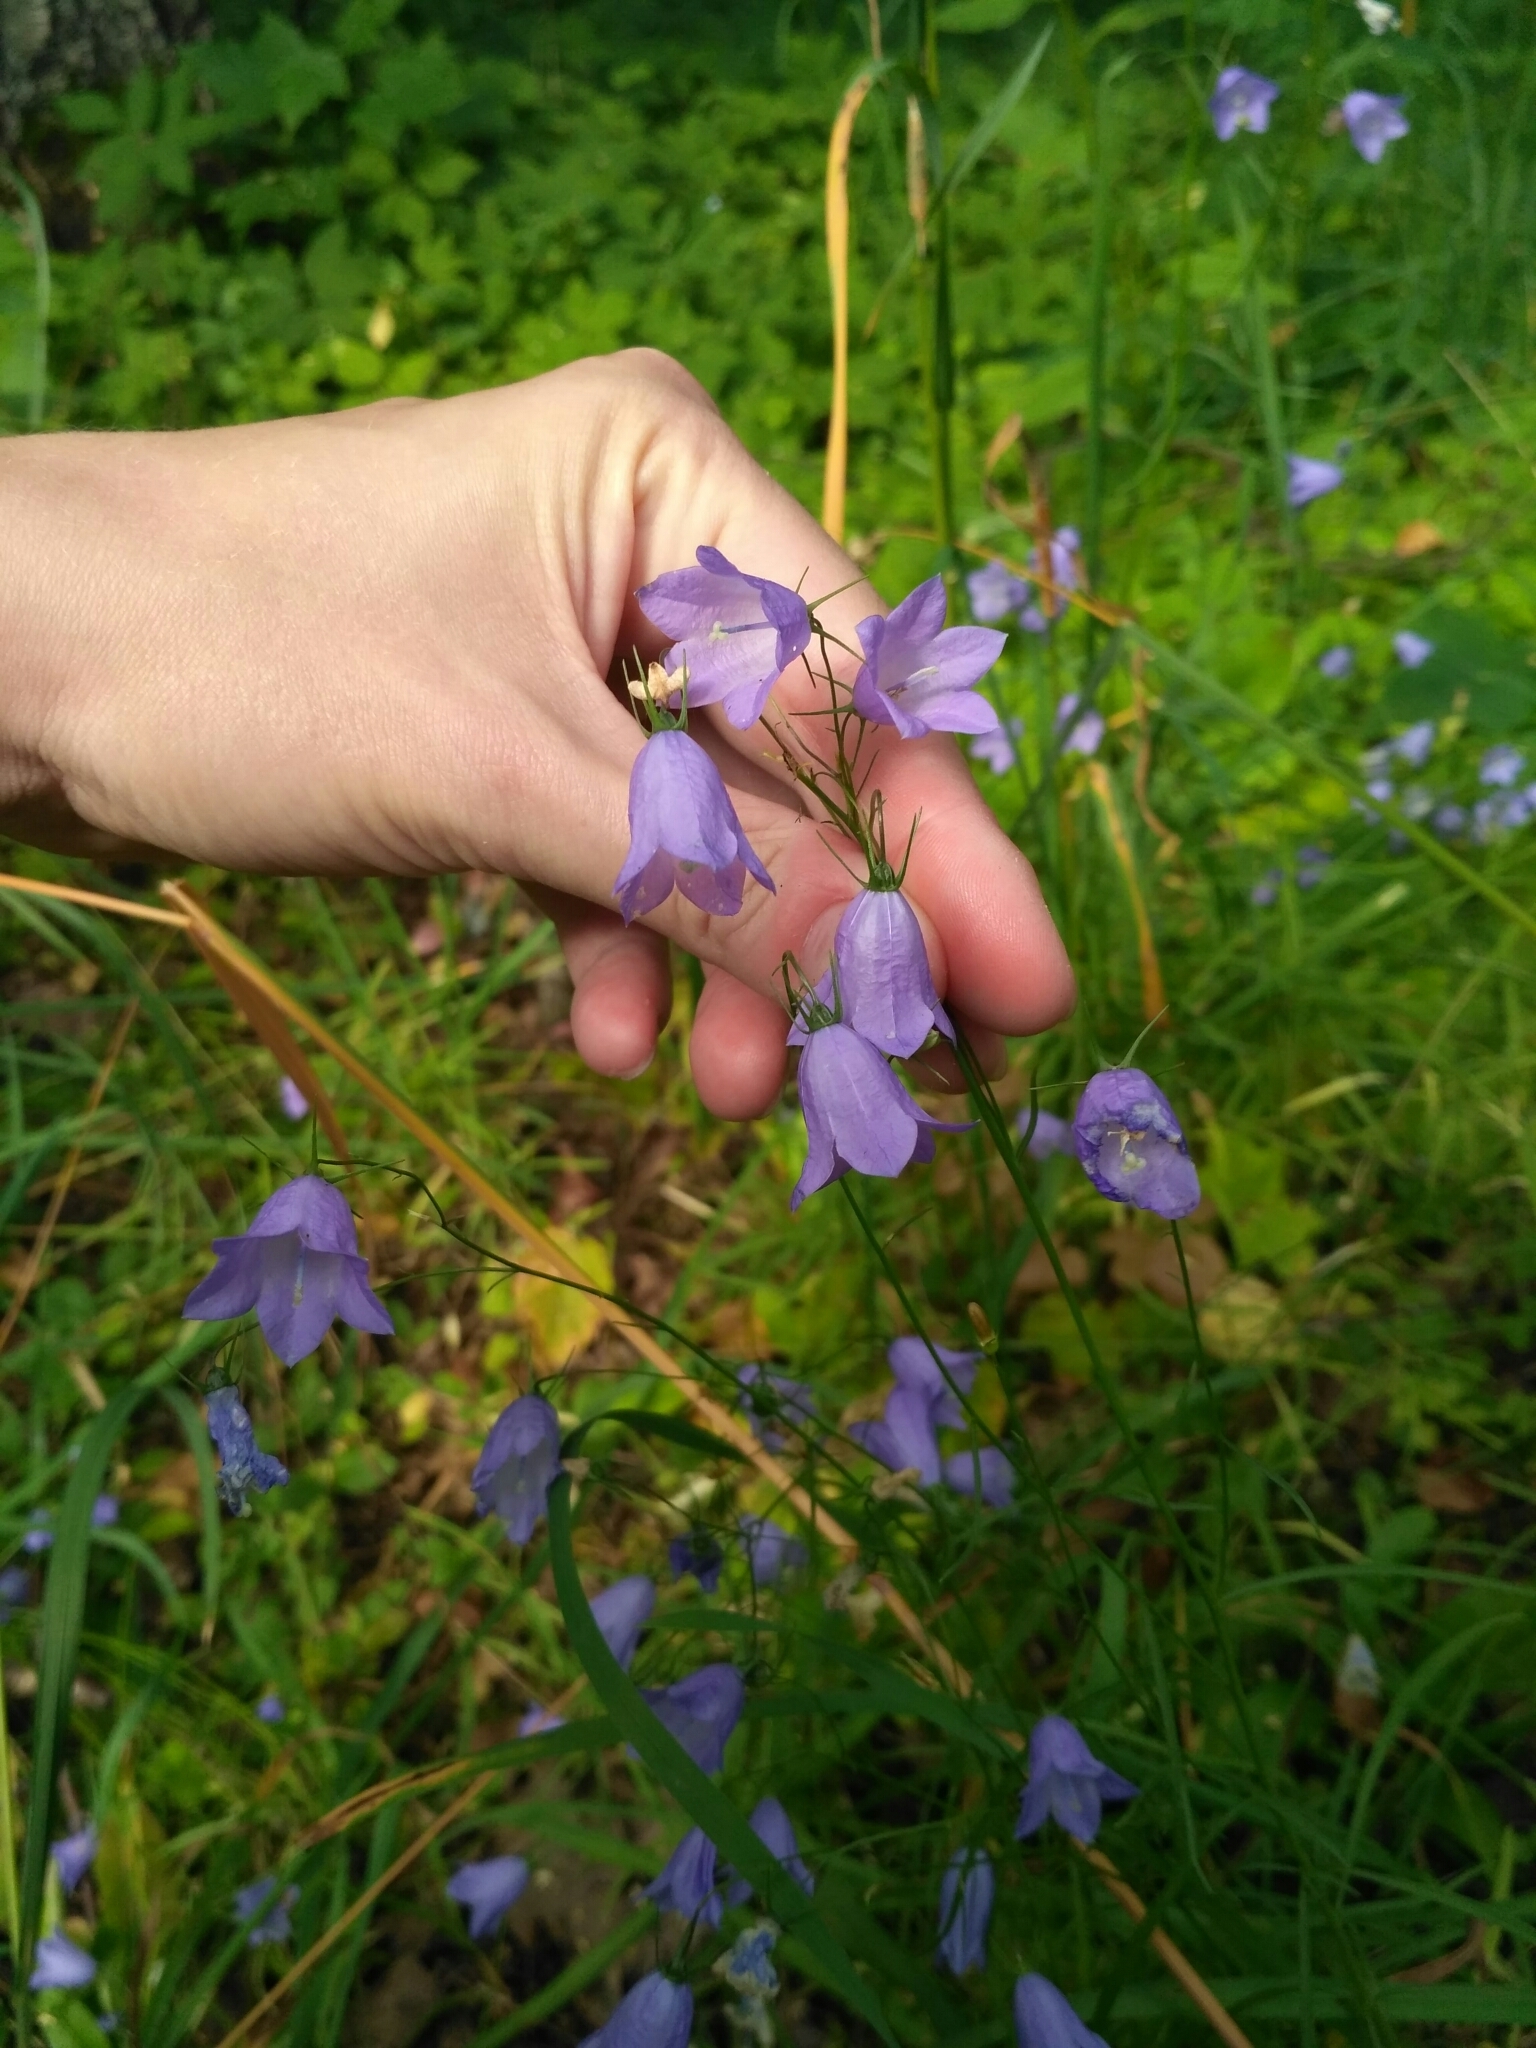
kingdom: Plantae
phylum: Tracheophyta
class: Magnoliopsida
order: Asterales
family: Campanulaceae
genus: Campanula
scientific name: Campanula rotundifolia
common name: Harebell
